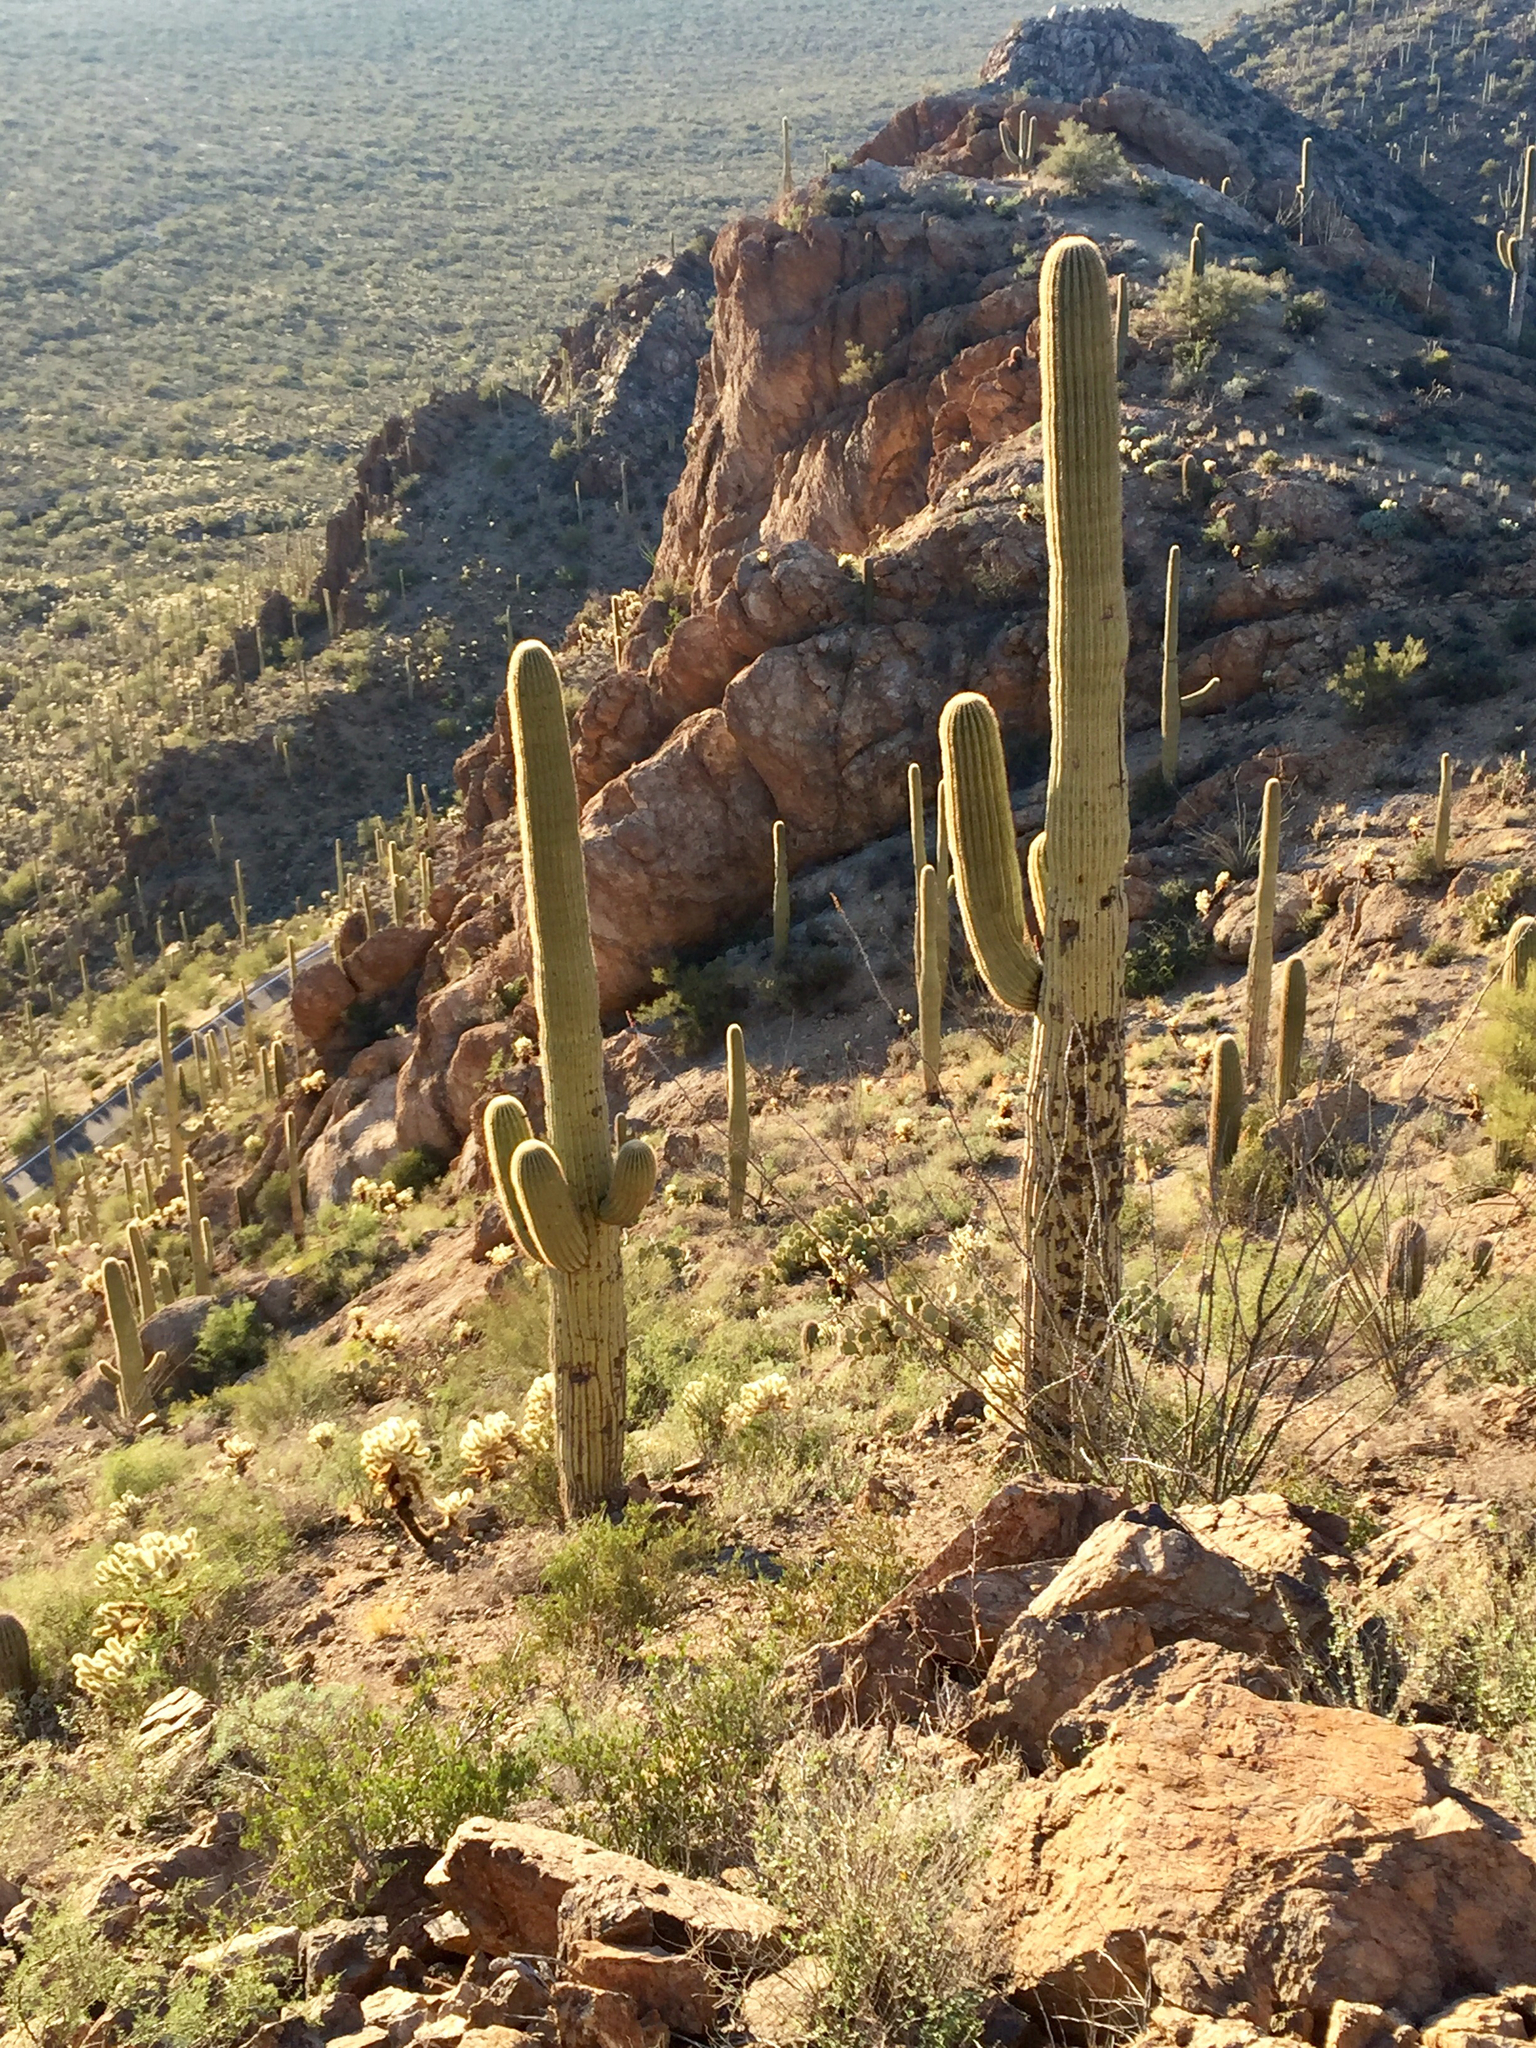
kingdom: Plantae
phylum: Tracheophyta
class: Magnoliopsida
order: Caryophyllales
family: Cactaceae
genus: Carnegiea
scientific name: Carnegiea gigantea
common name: Saguaro
